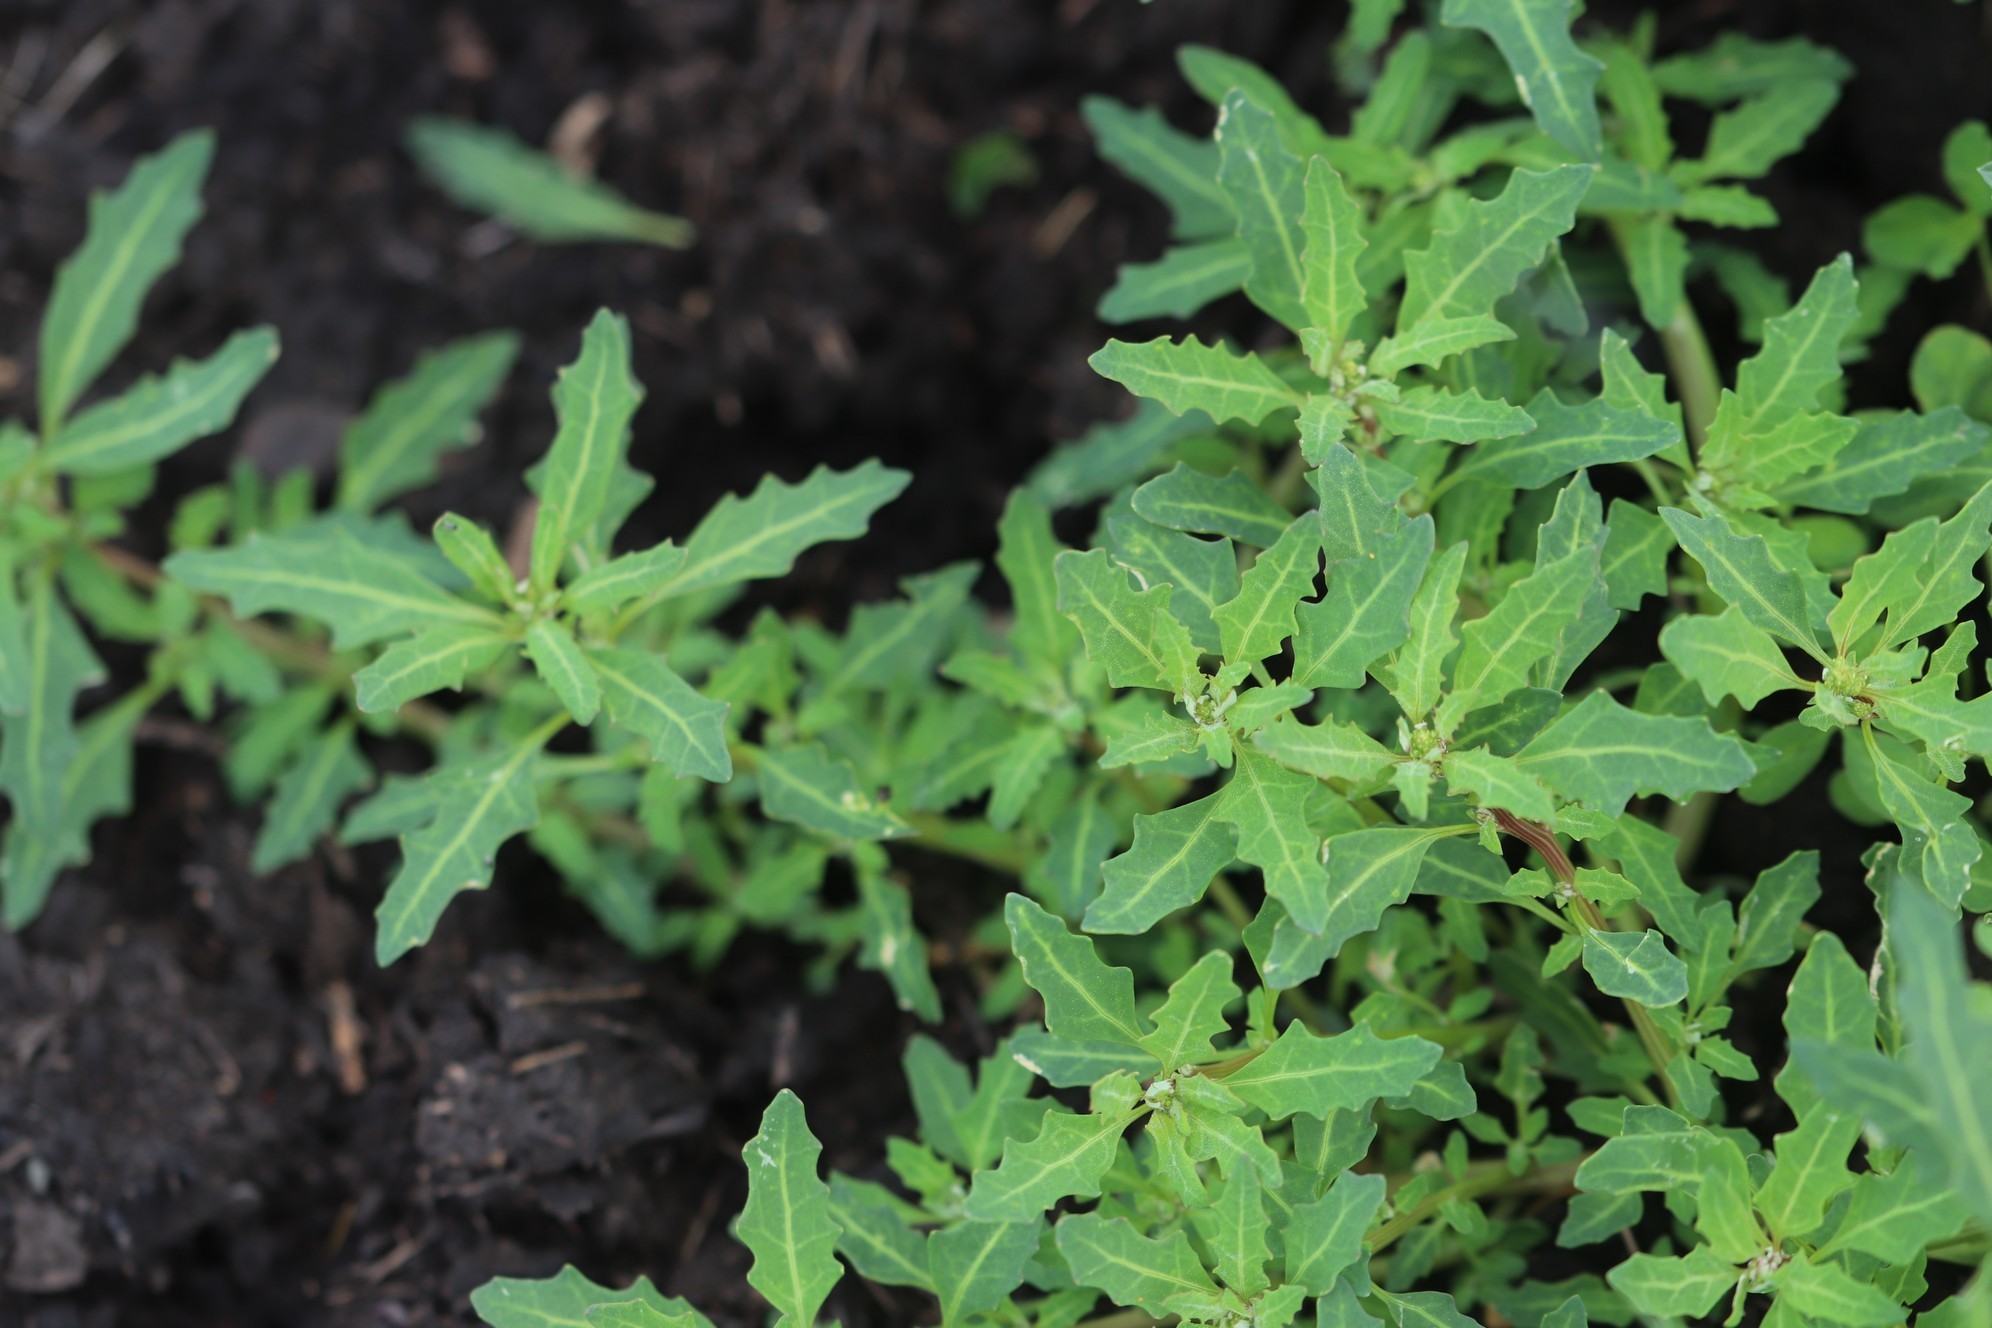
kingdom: Plantae
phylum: Tracheophyta
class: Magnoliopsida
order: Caryophyllales
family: Amaranthaceae
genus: Oxybasis
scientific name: Oxybasis glauca
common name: Glaucous goosefoot
